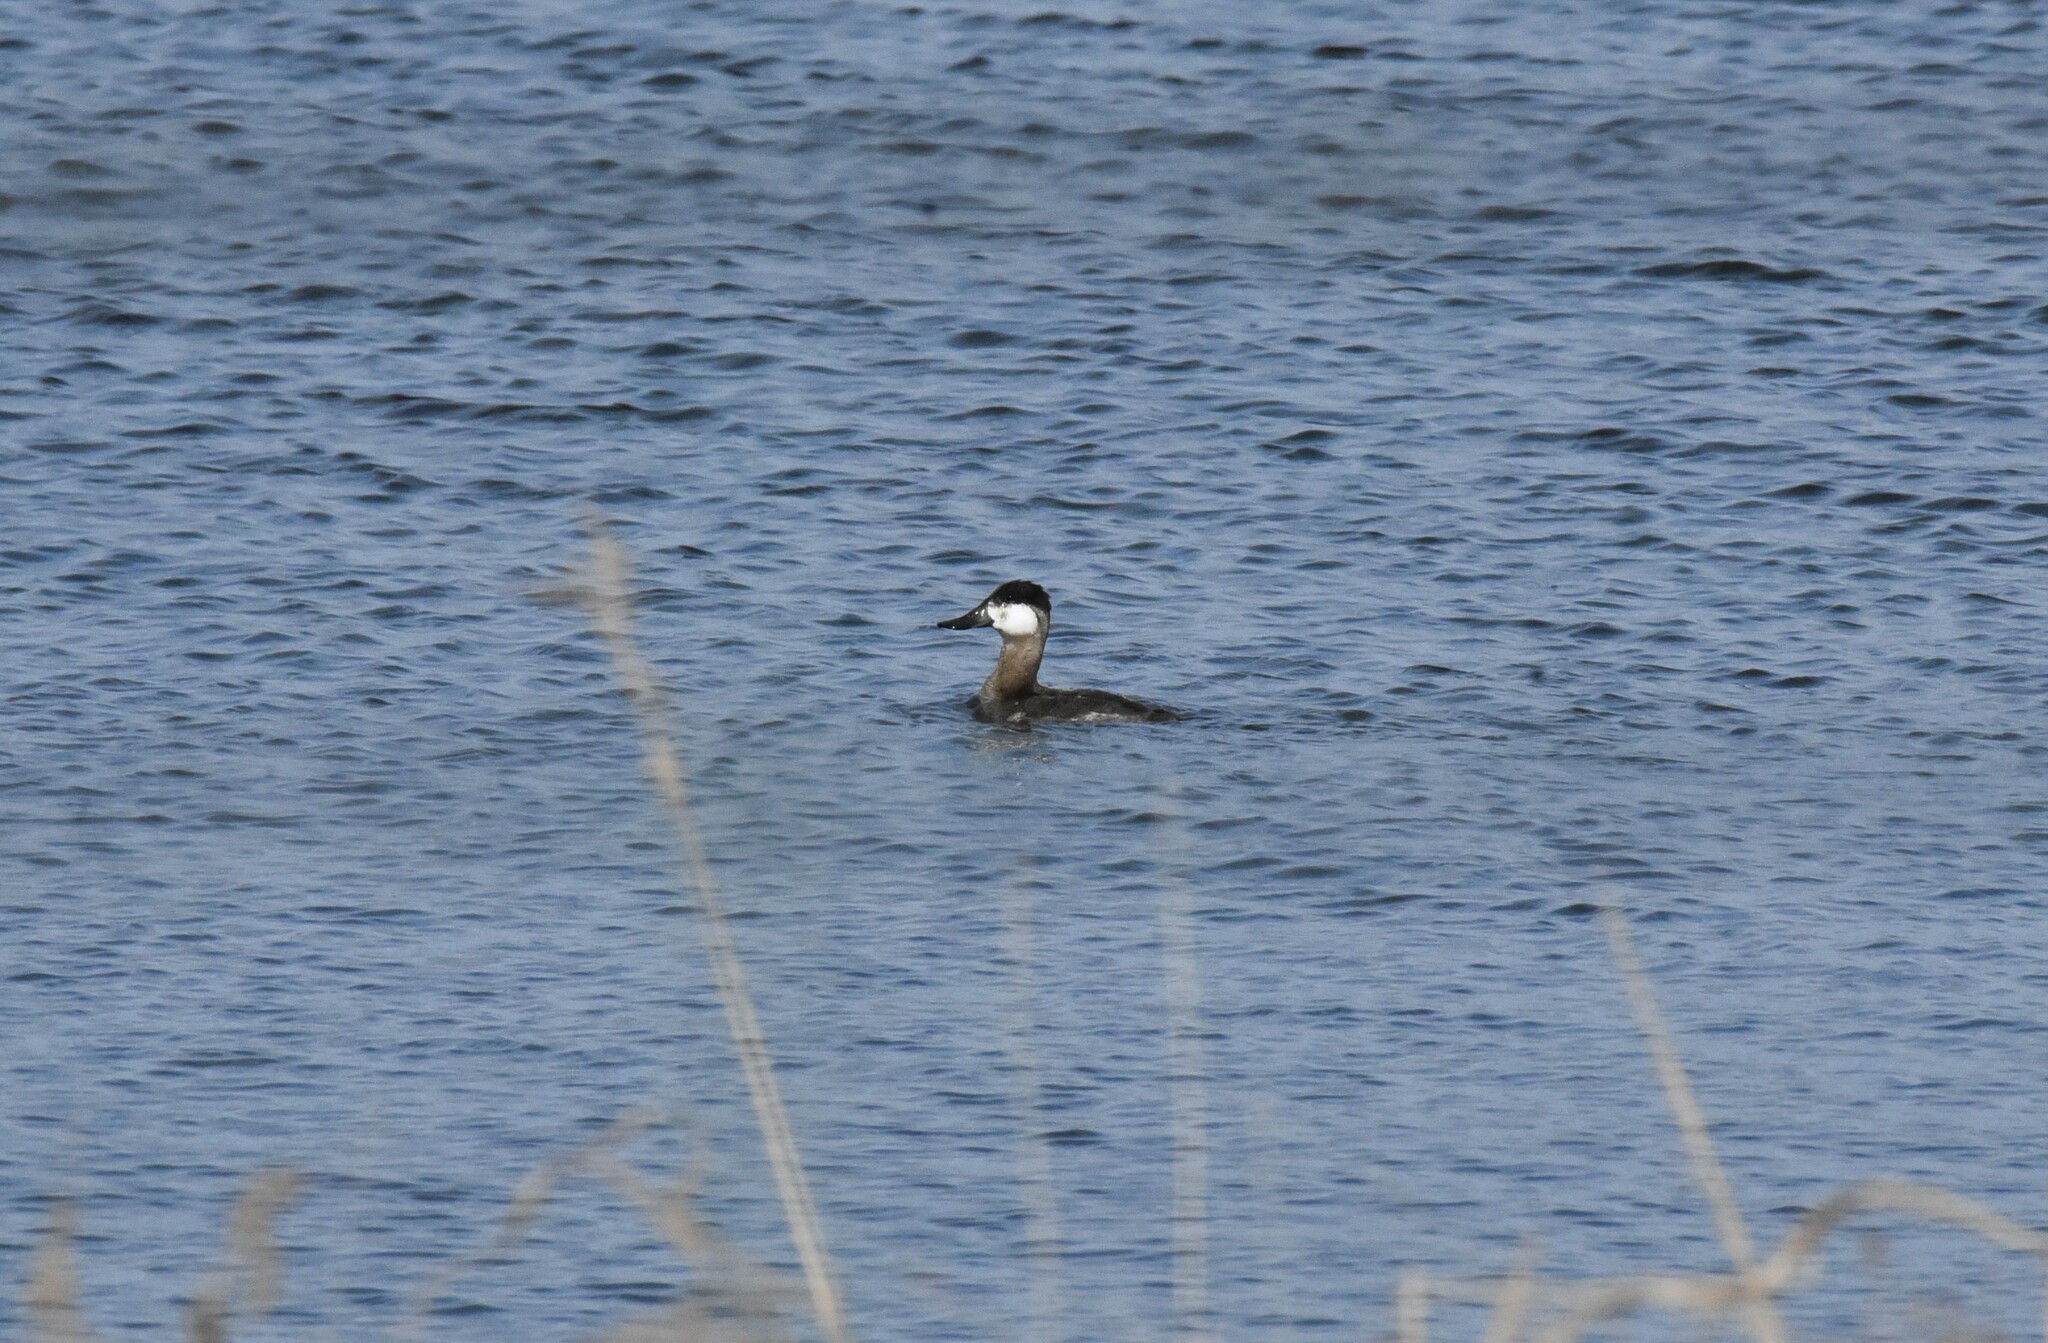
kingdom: Animalia
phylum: Chordata
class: Aves
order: Anseriformes
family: Anatidae
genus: Oxyura
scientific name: Oxyura jamaicensis
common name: Ruddy duck
